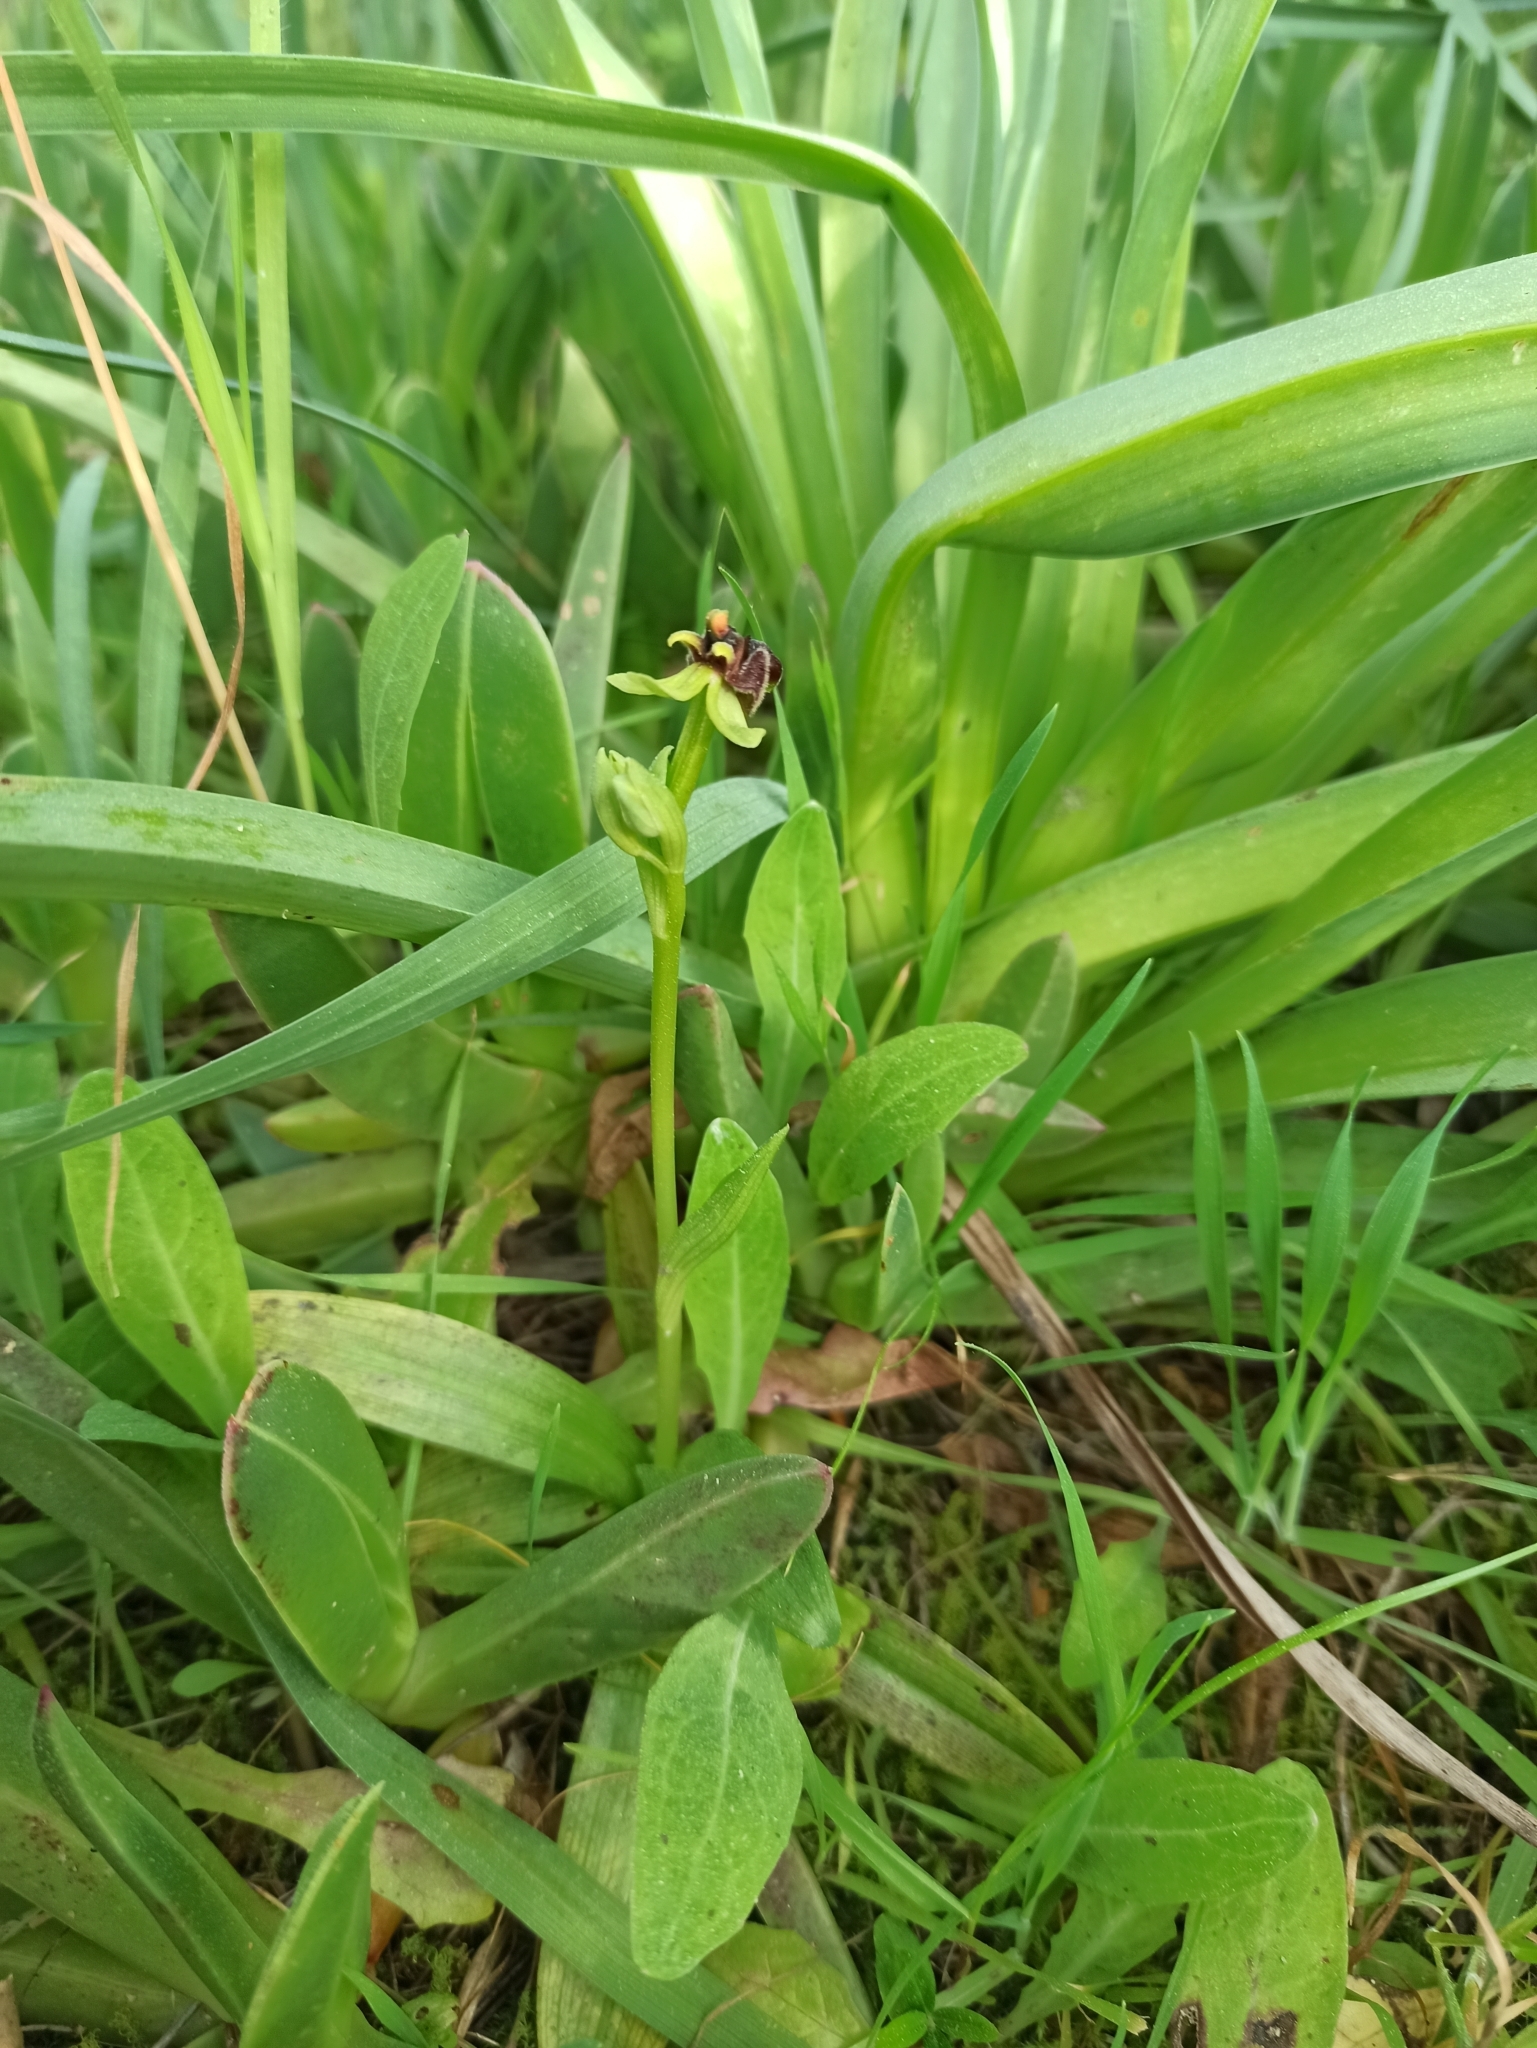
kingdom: Plantae
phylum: Tracheophyta
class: Liliopsida
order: Asparagales
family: Orchidaceae
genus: Ophrys
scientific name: Ophrys bombyliflora
